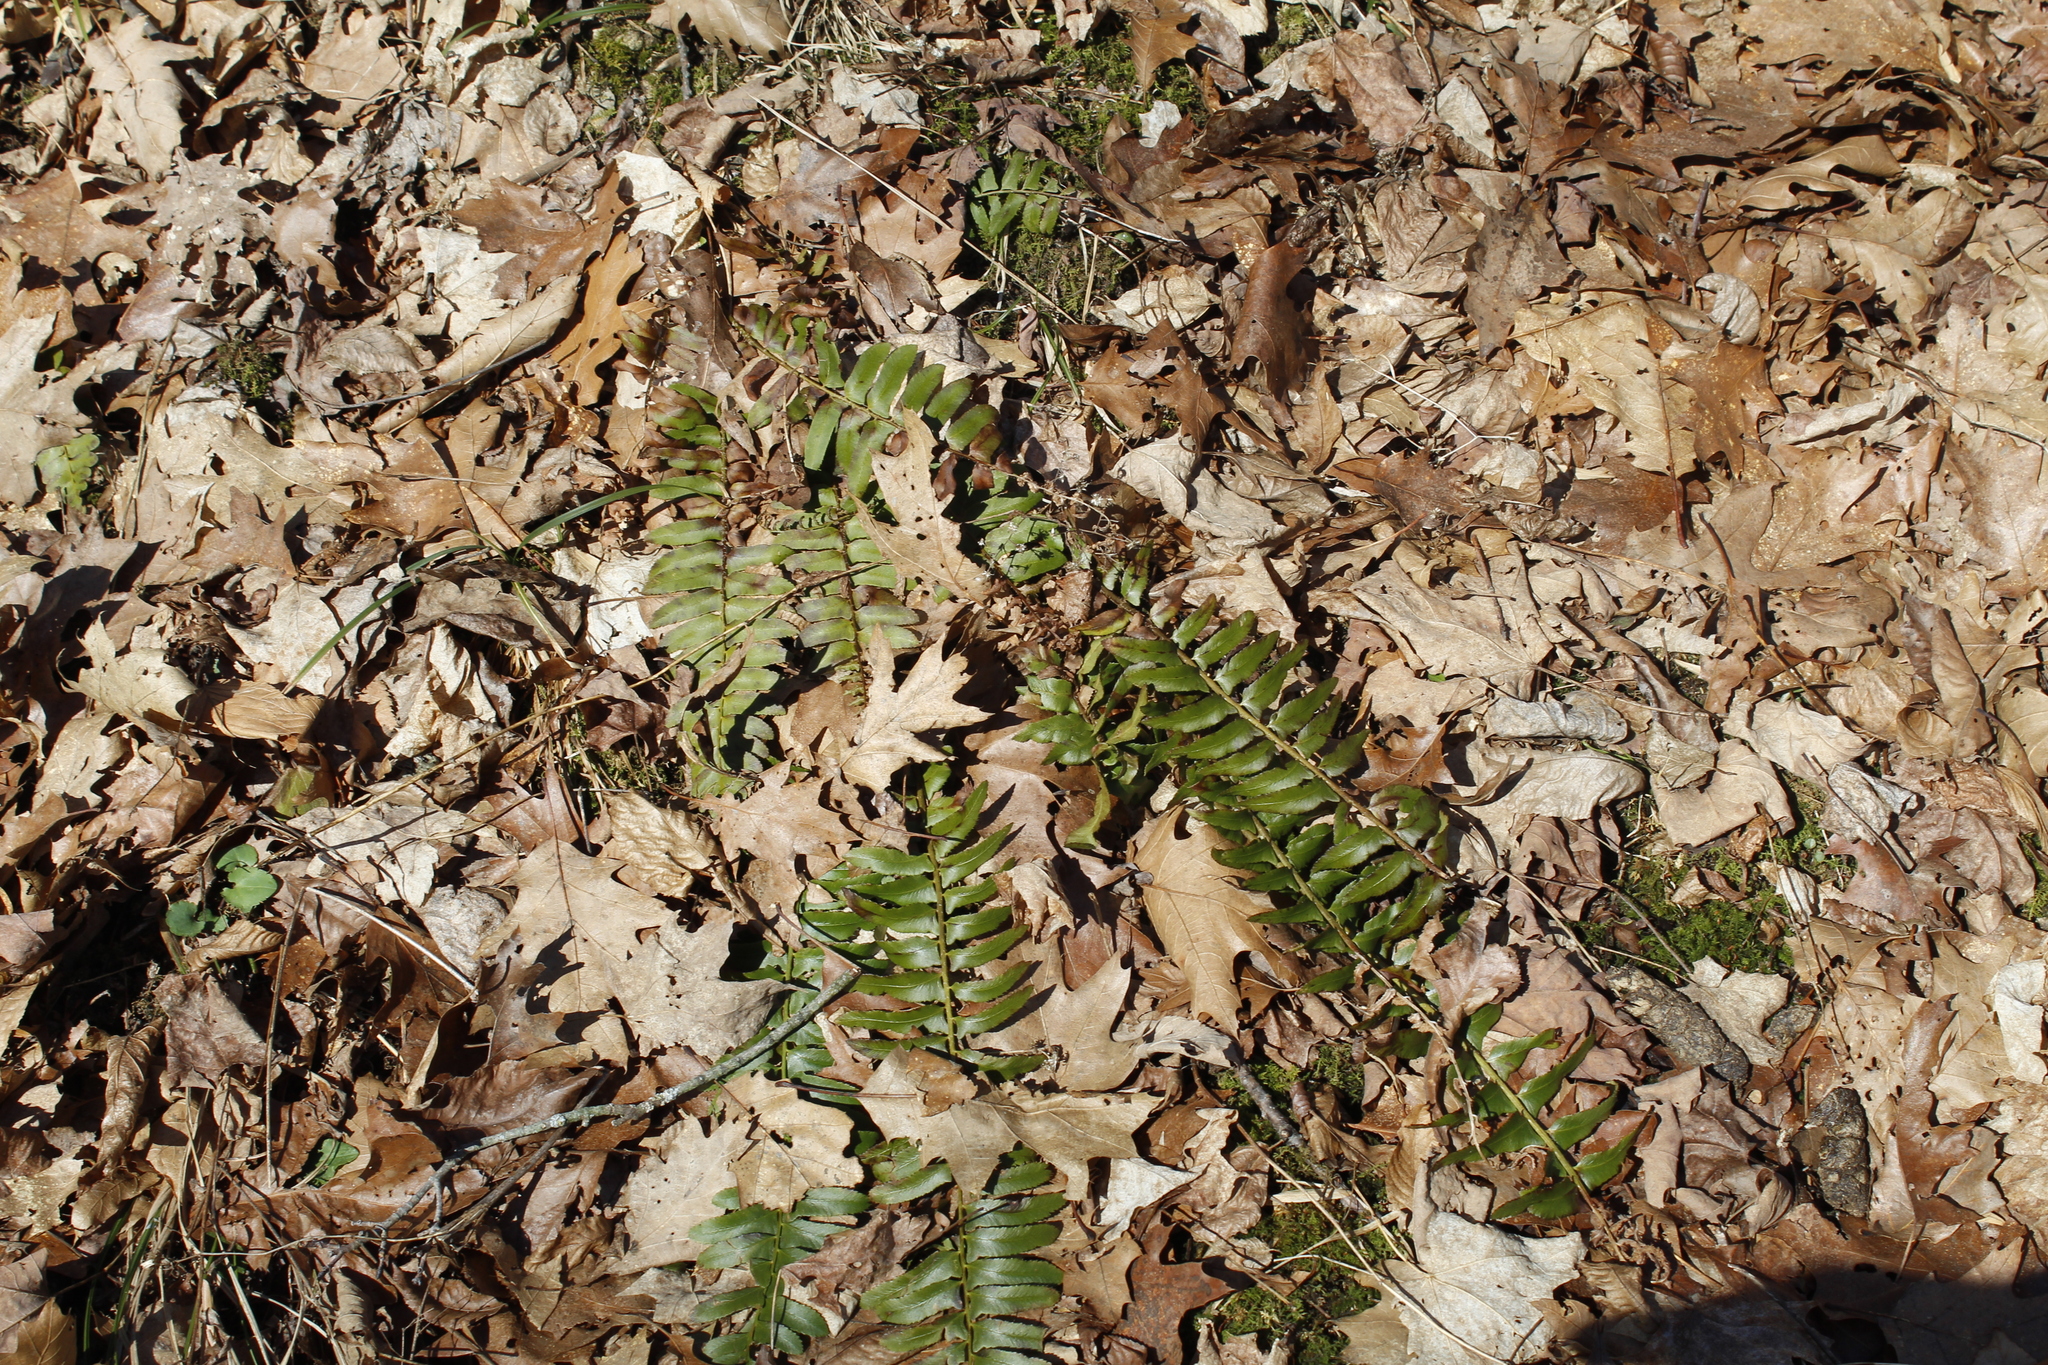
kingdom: Plantae
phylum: Tracheophyta
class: Polypodiopsida
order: Polypodiales
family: Dryopteridaceae
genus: Polystichum
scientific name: Polystichum acrostichoides
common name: Christmas fern
